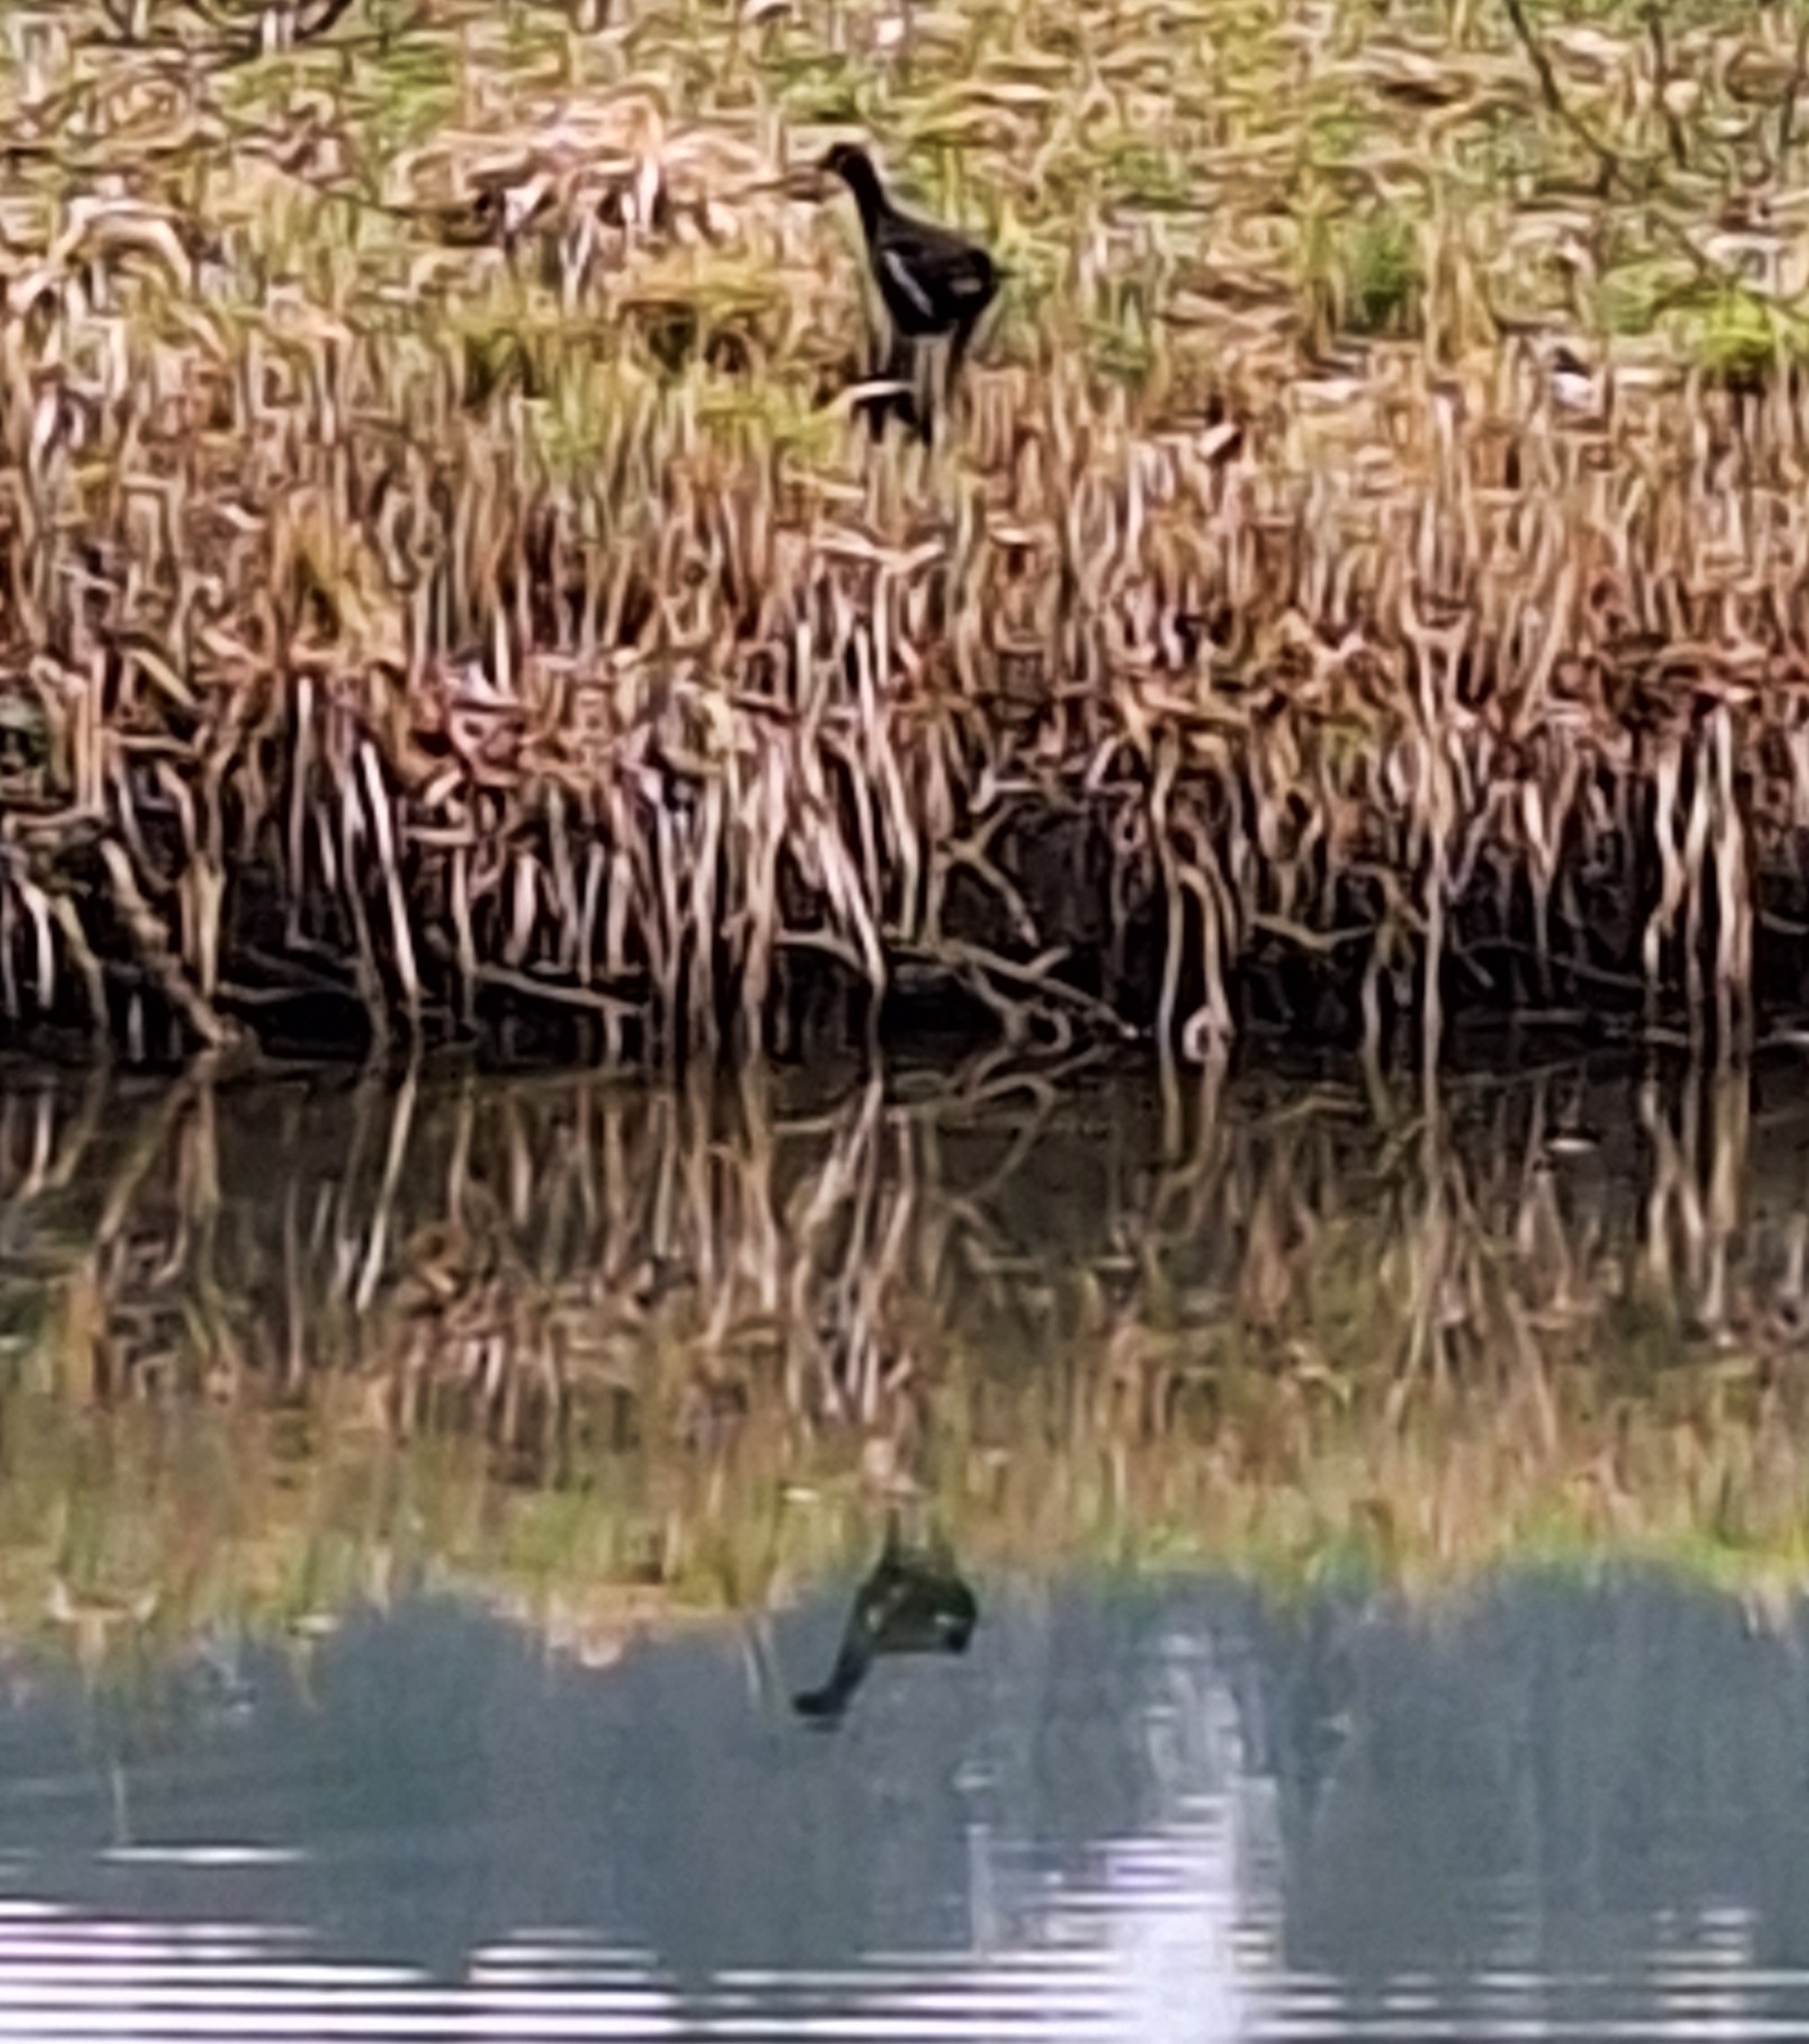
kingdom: Animalia
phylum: Chordata
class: Aves
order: Gruiformes
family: Rallidae
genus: Gallinula
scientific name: Gallinula chloropus
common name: Common moorhen
